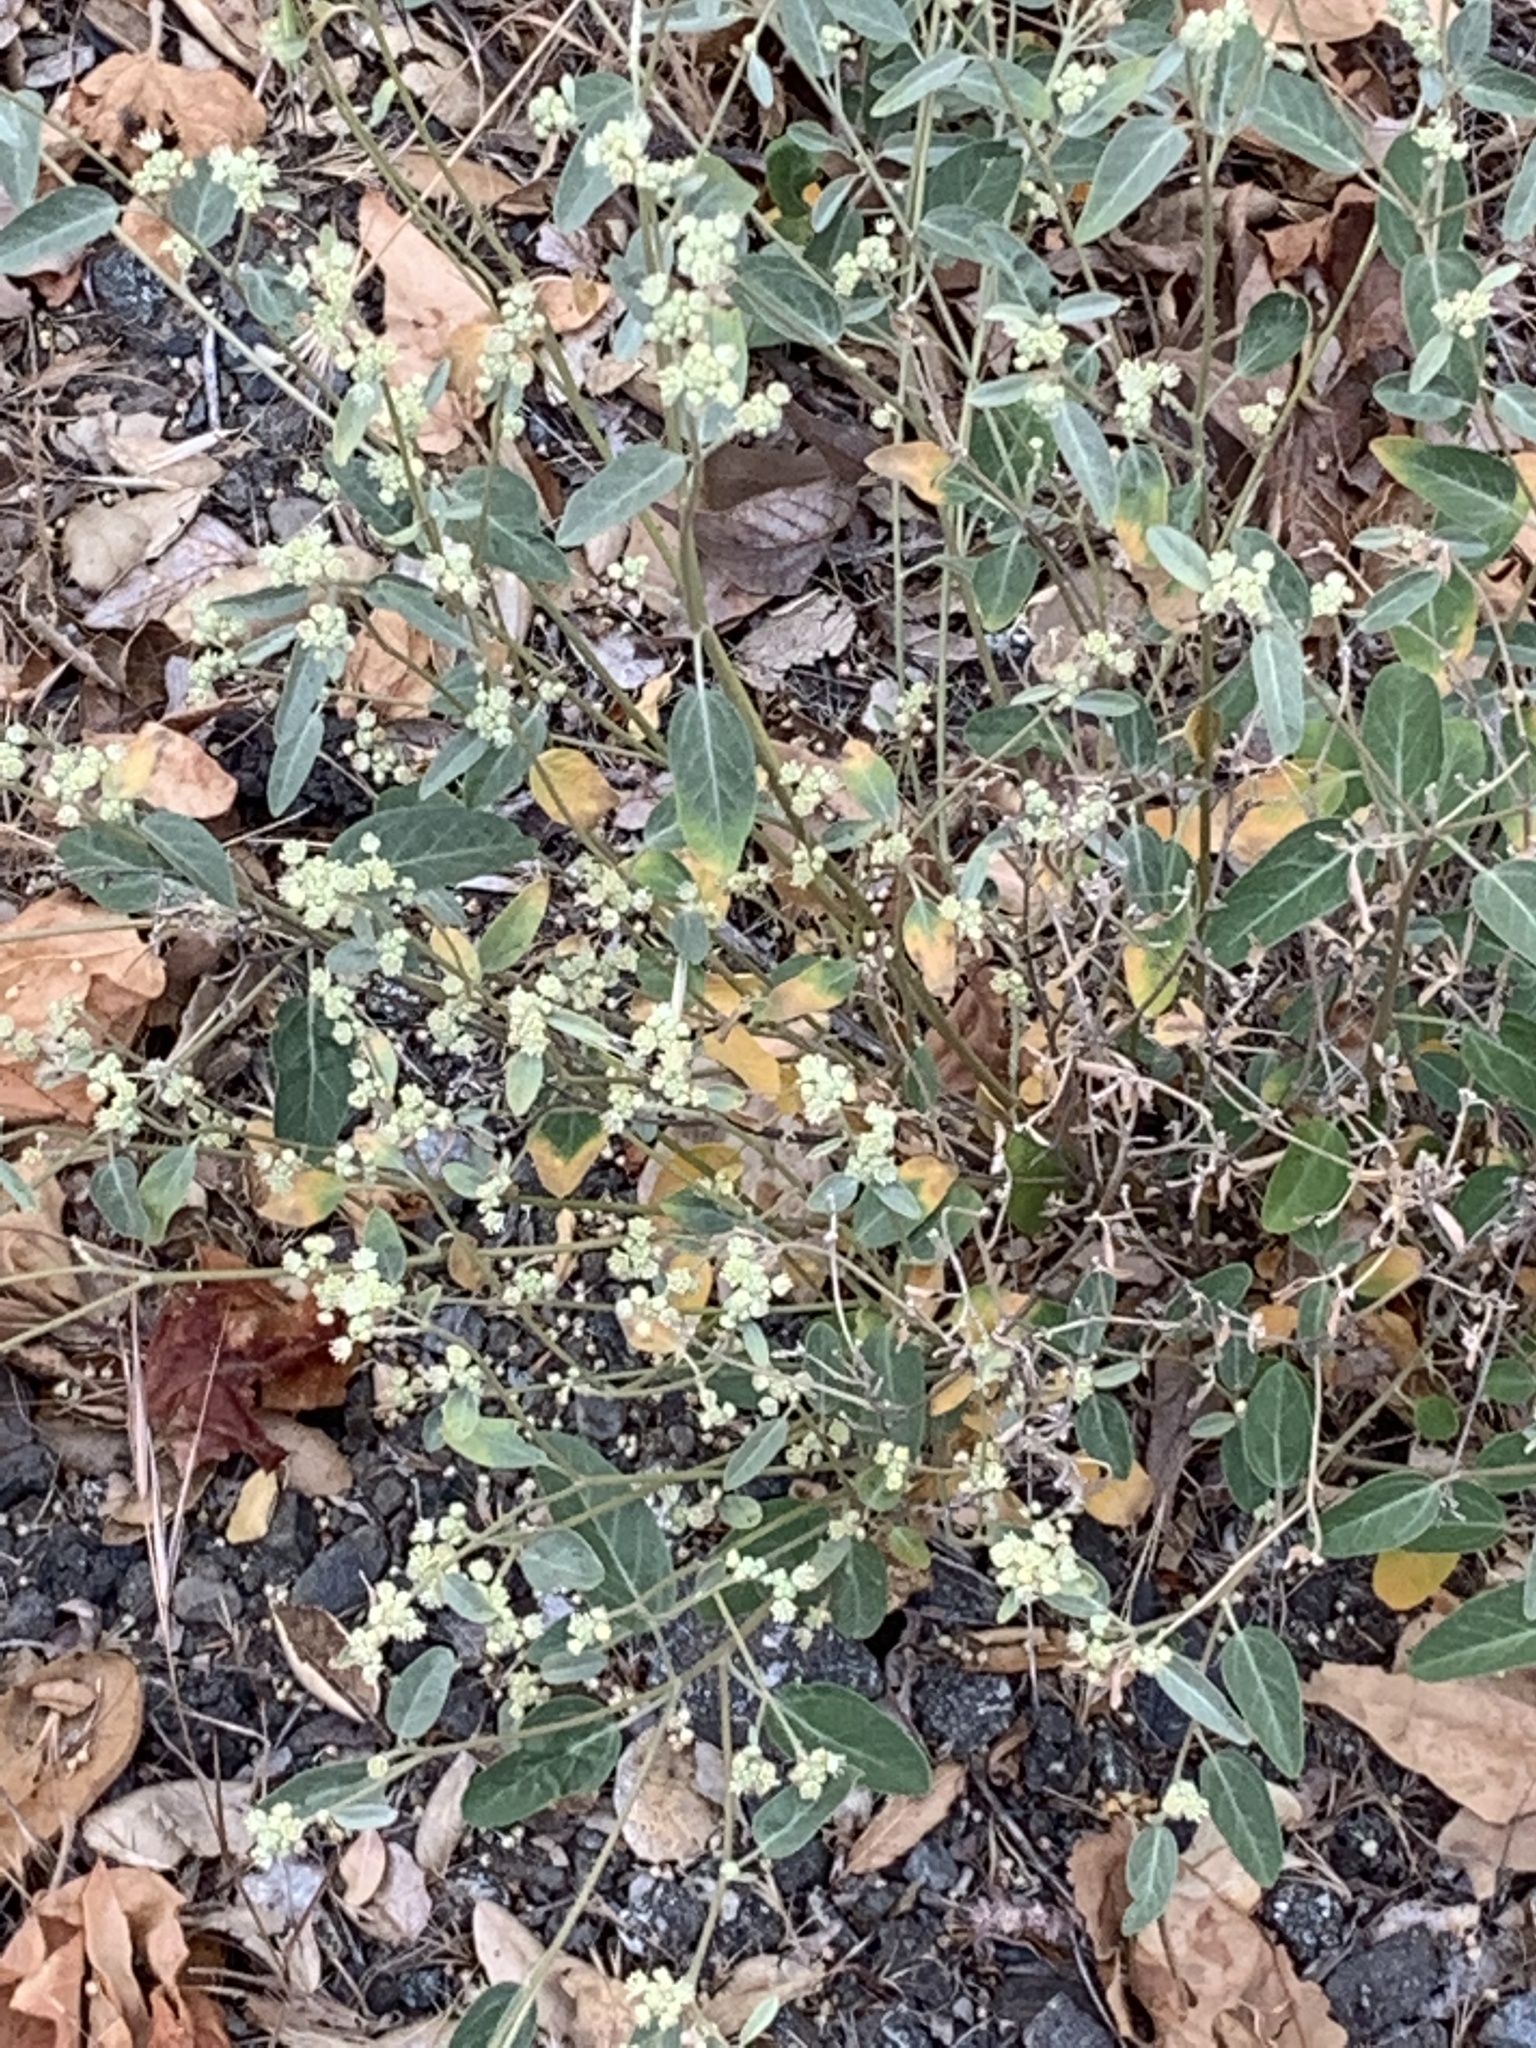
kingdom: Plantae
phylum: Tracheophyta
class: Magnoliopsida
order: Malpighiales
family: Euphorbiaceae
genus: Croton
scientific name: Croton californicus
